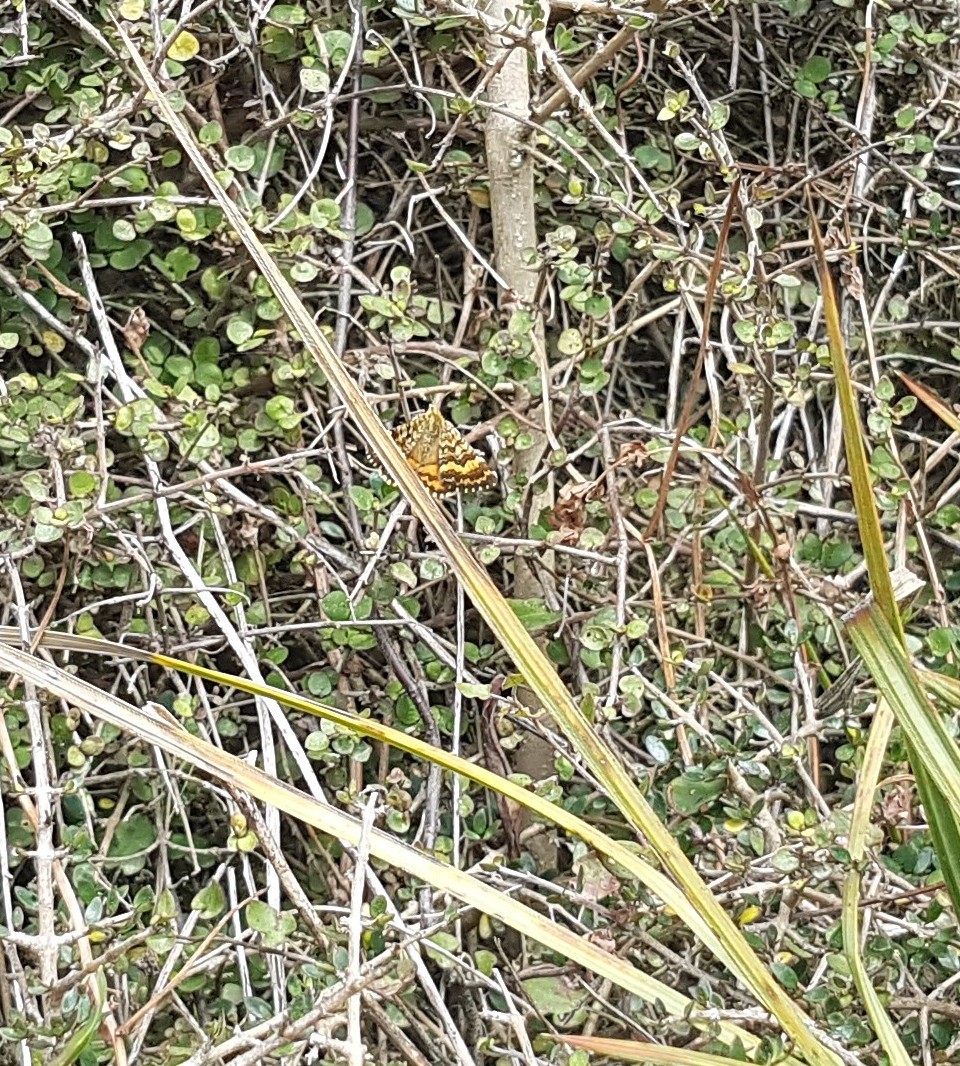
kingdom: Animalia
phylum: Arthropoda
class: Insecta
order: Lepidoptera
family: Geometridae
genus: Dasyuris
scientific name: Dasyuris partheniata
